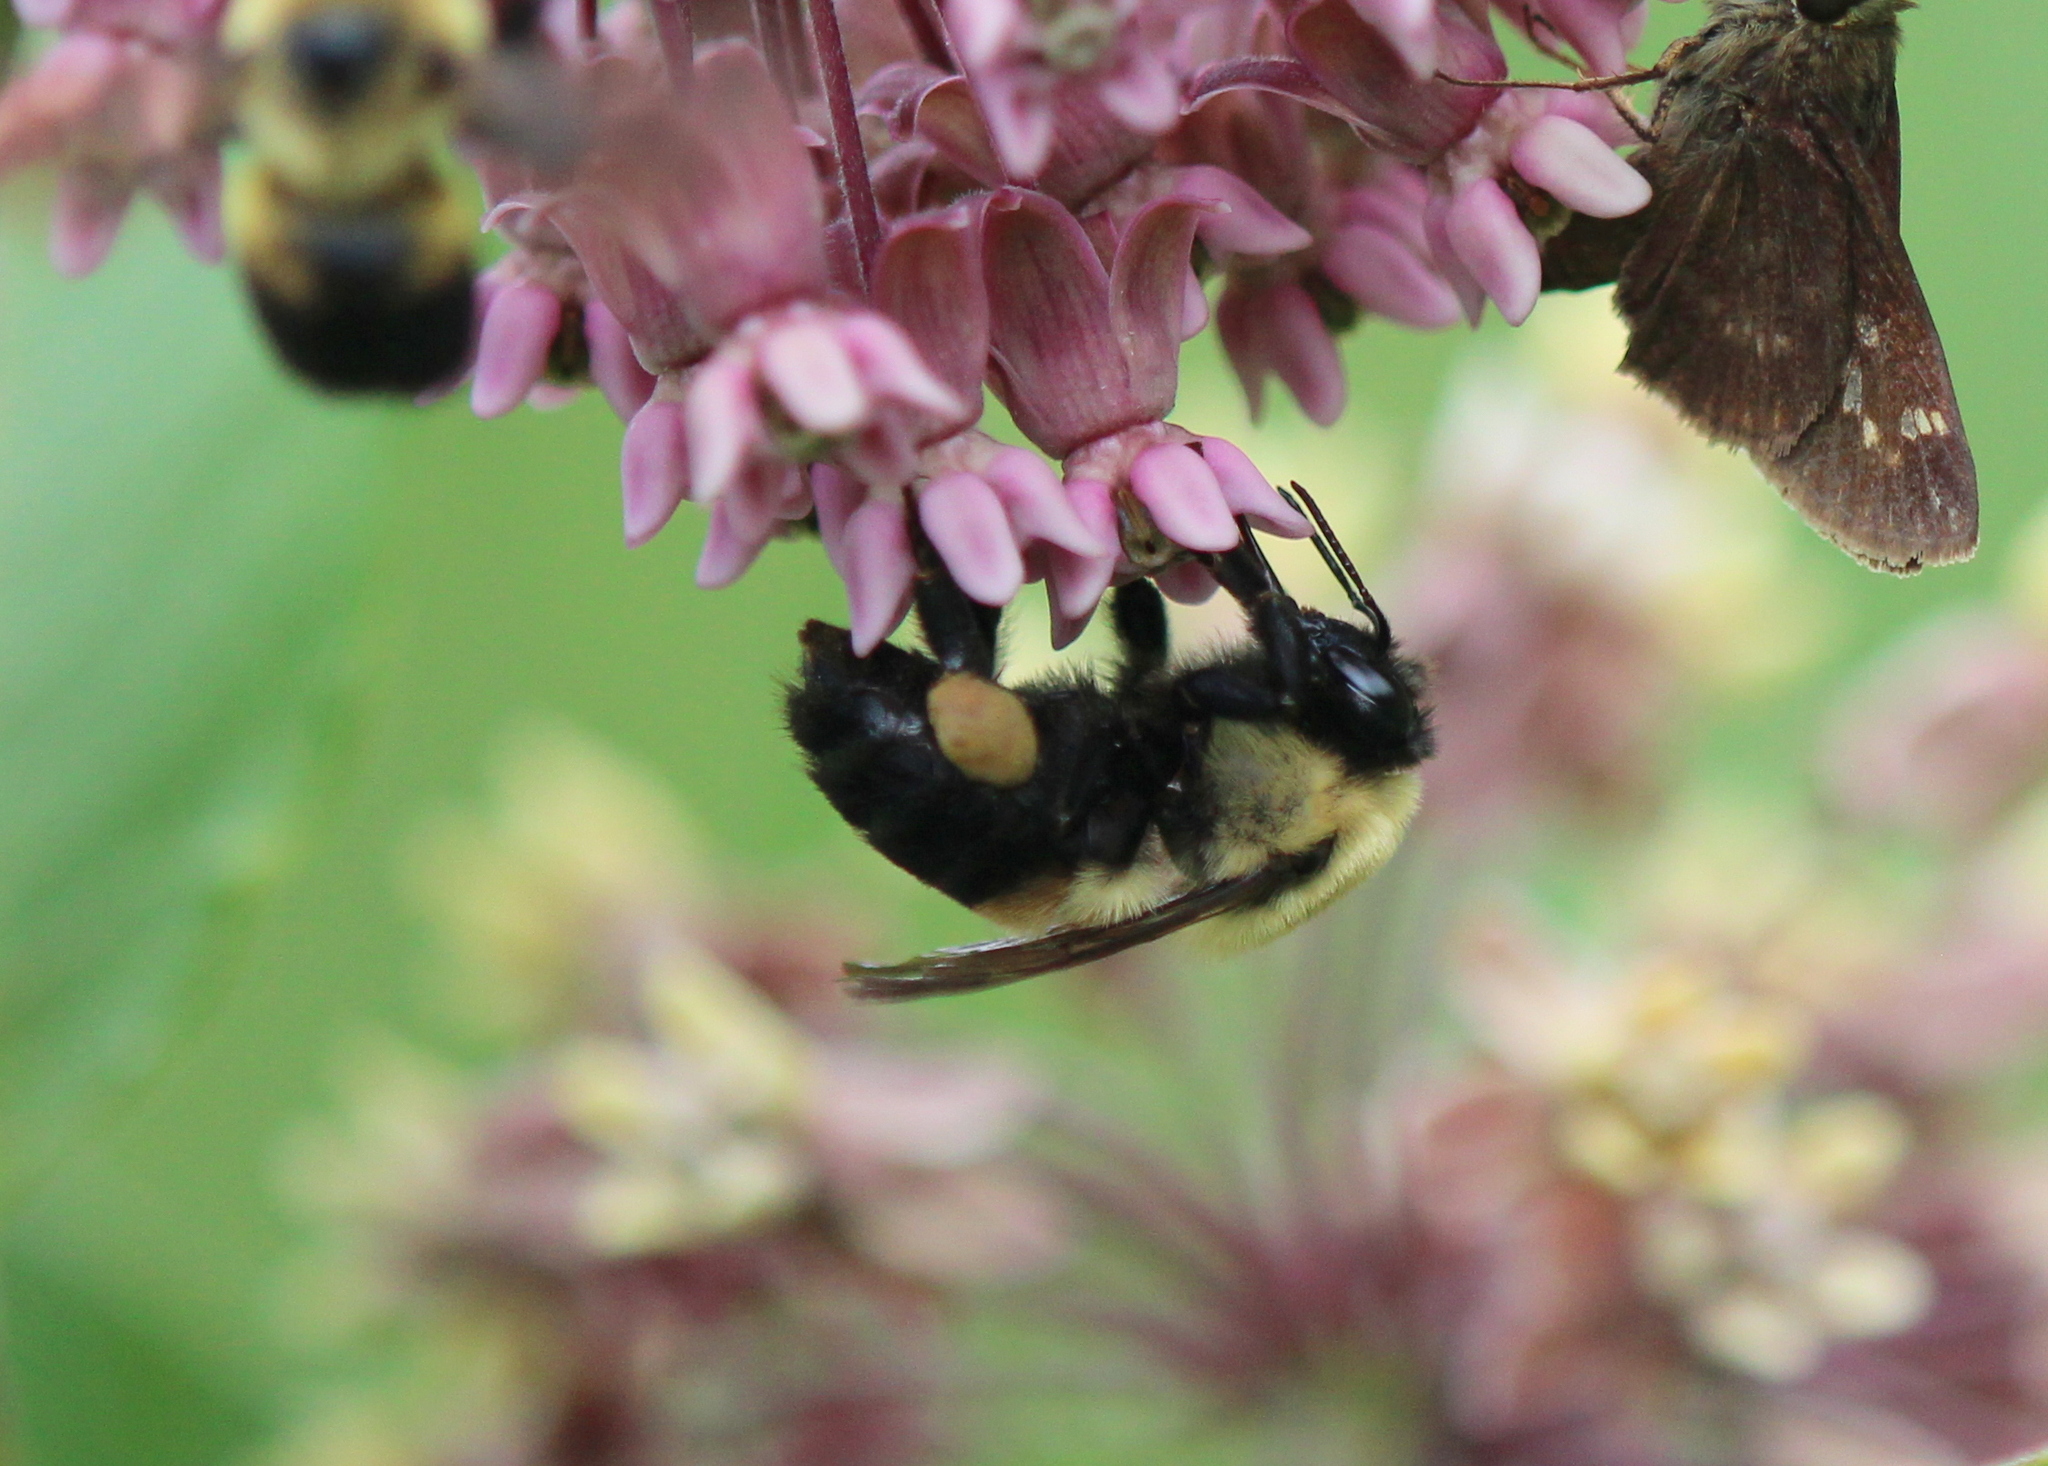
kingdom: Animalia
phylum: Arthropoda
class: Insecta
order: Hymenoptera
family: Apidae
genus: Bombus
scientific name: Bombus griseocollis
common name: Brown-belted bumble bee
